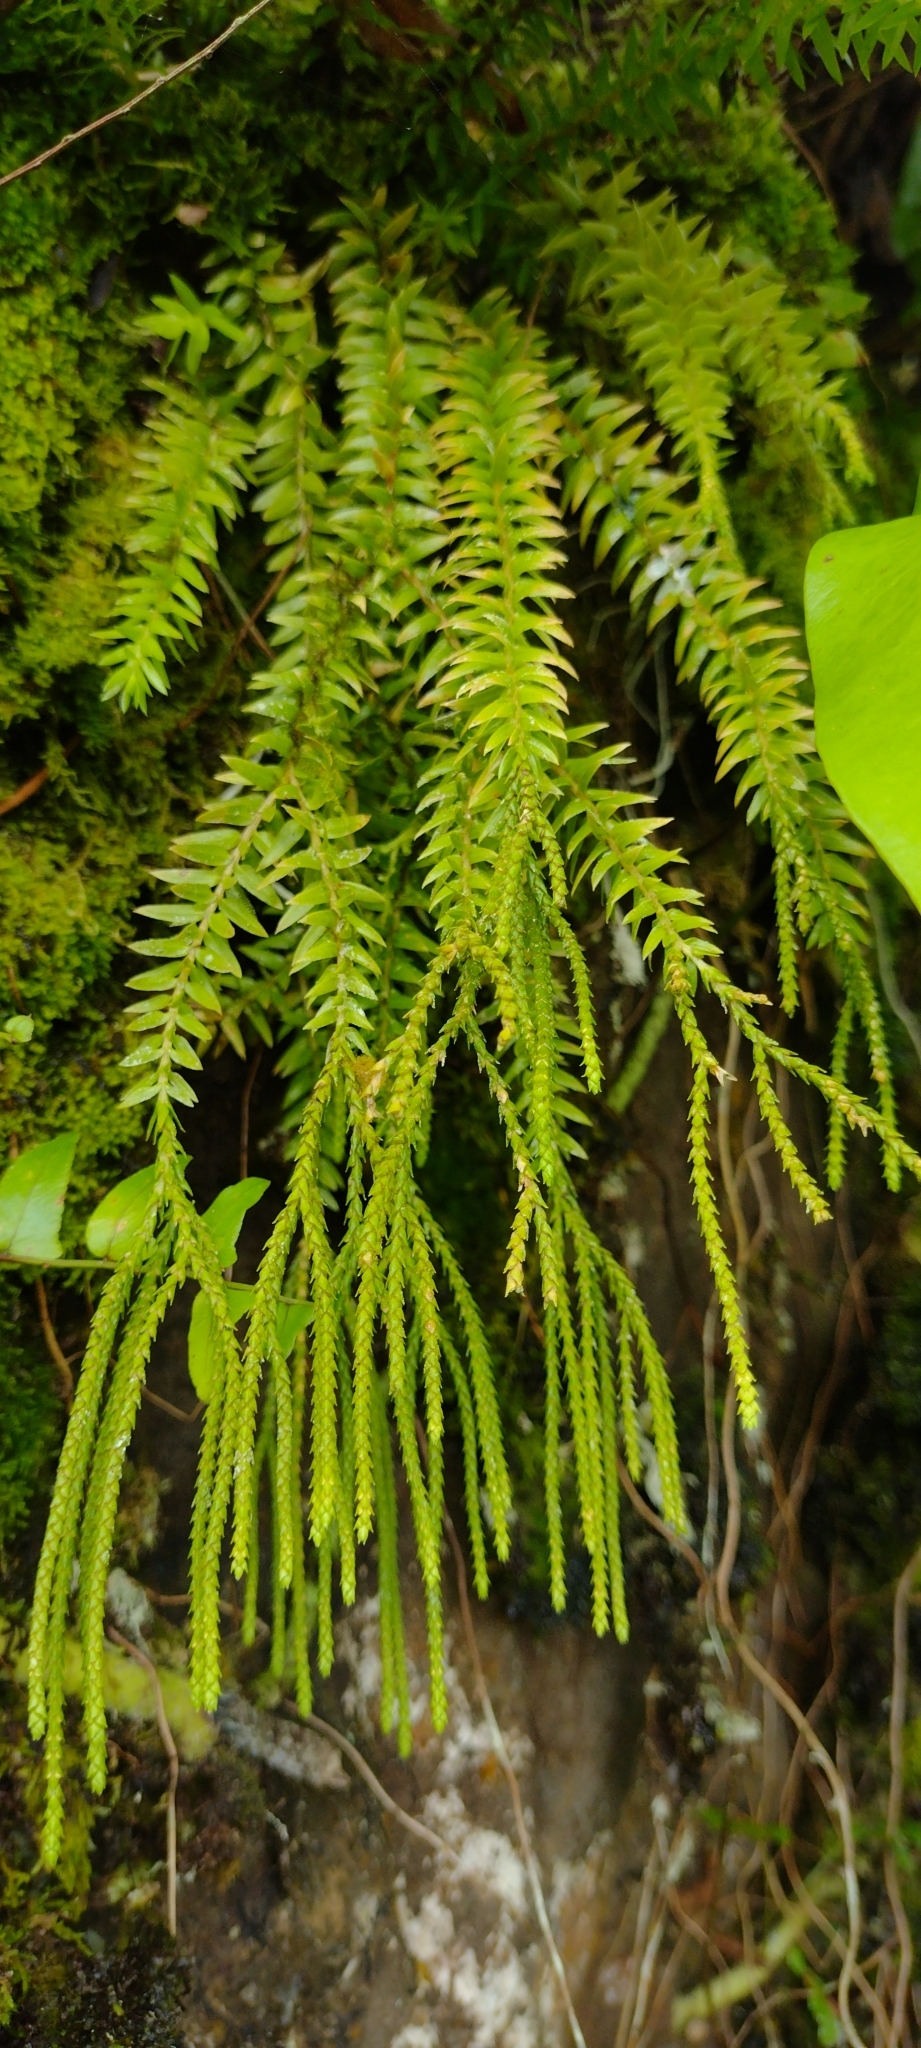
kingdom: Plantae
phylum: Tracheophyta
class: Lycopodiopsida
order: Lycopodiales
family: Lycopodiaceae
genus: Phlegmariurus
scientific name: Phlegmariurus phlegmaria
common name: Coarse tassel-fern
